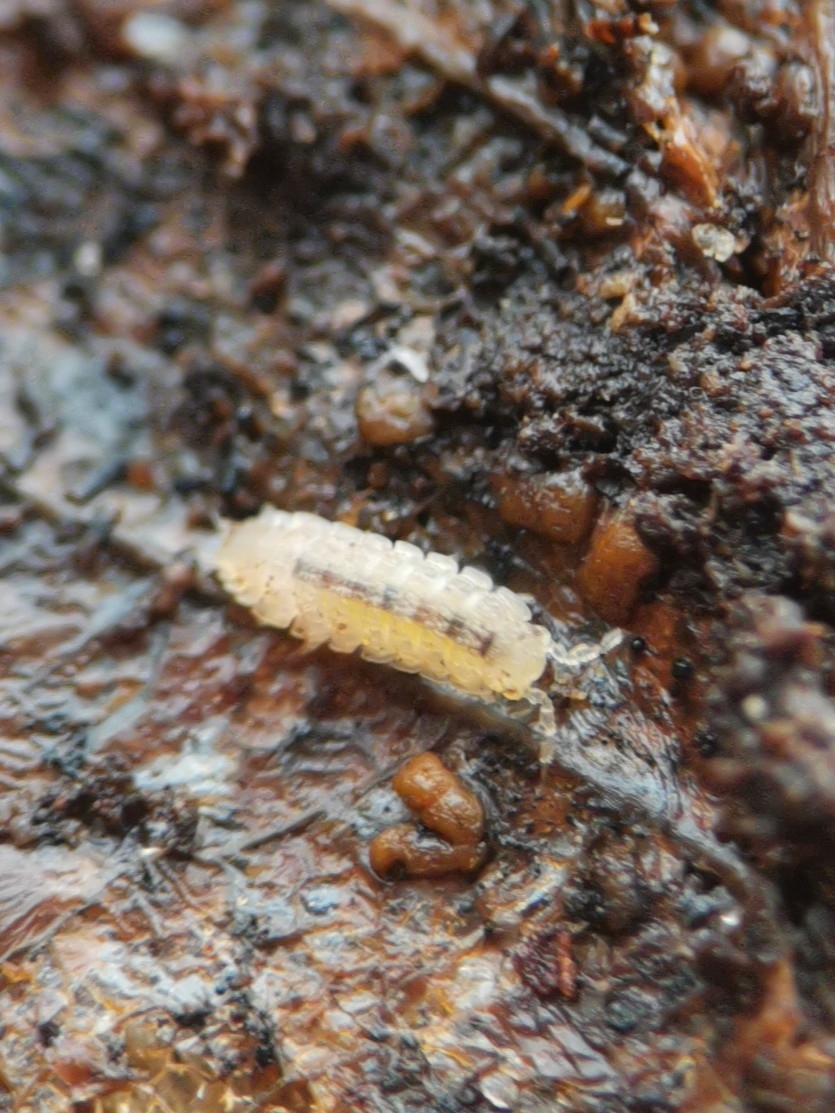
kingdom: Animalia
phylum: Arthropoda
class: Malacostraca
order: Isopoda
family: Trichoniscidae
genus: Haplophthalmus
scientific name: Haplophthalmus danicus
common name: Pillbug
